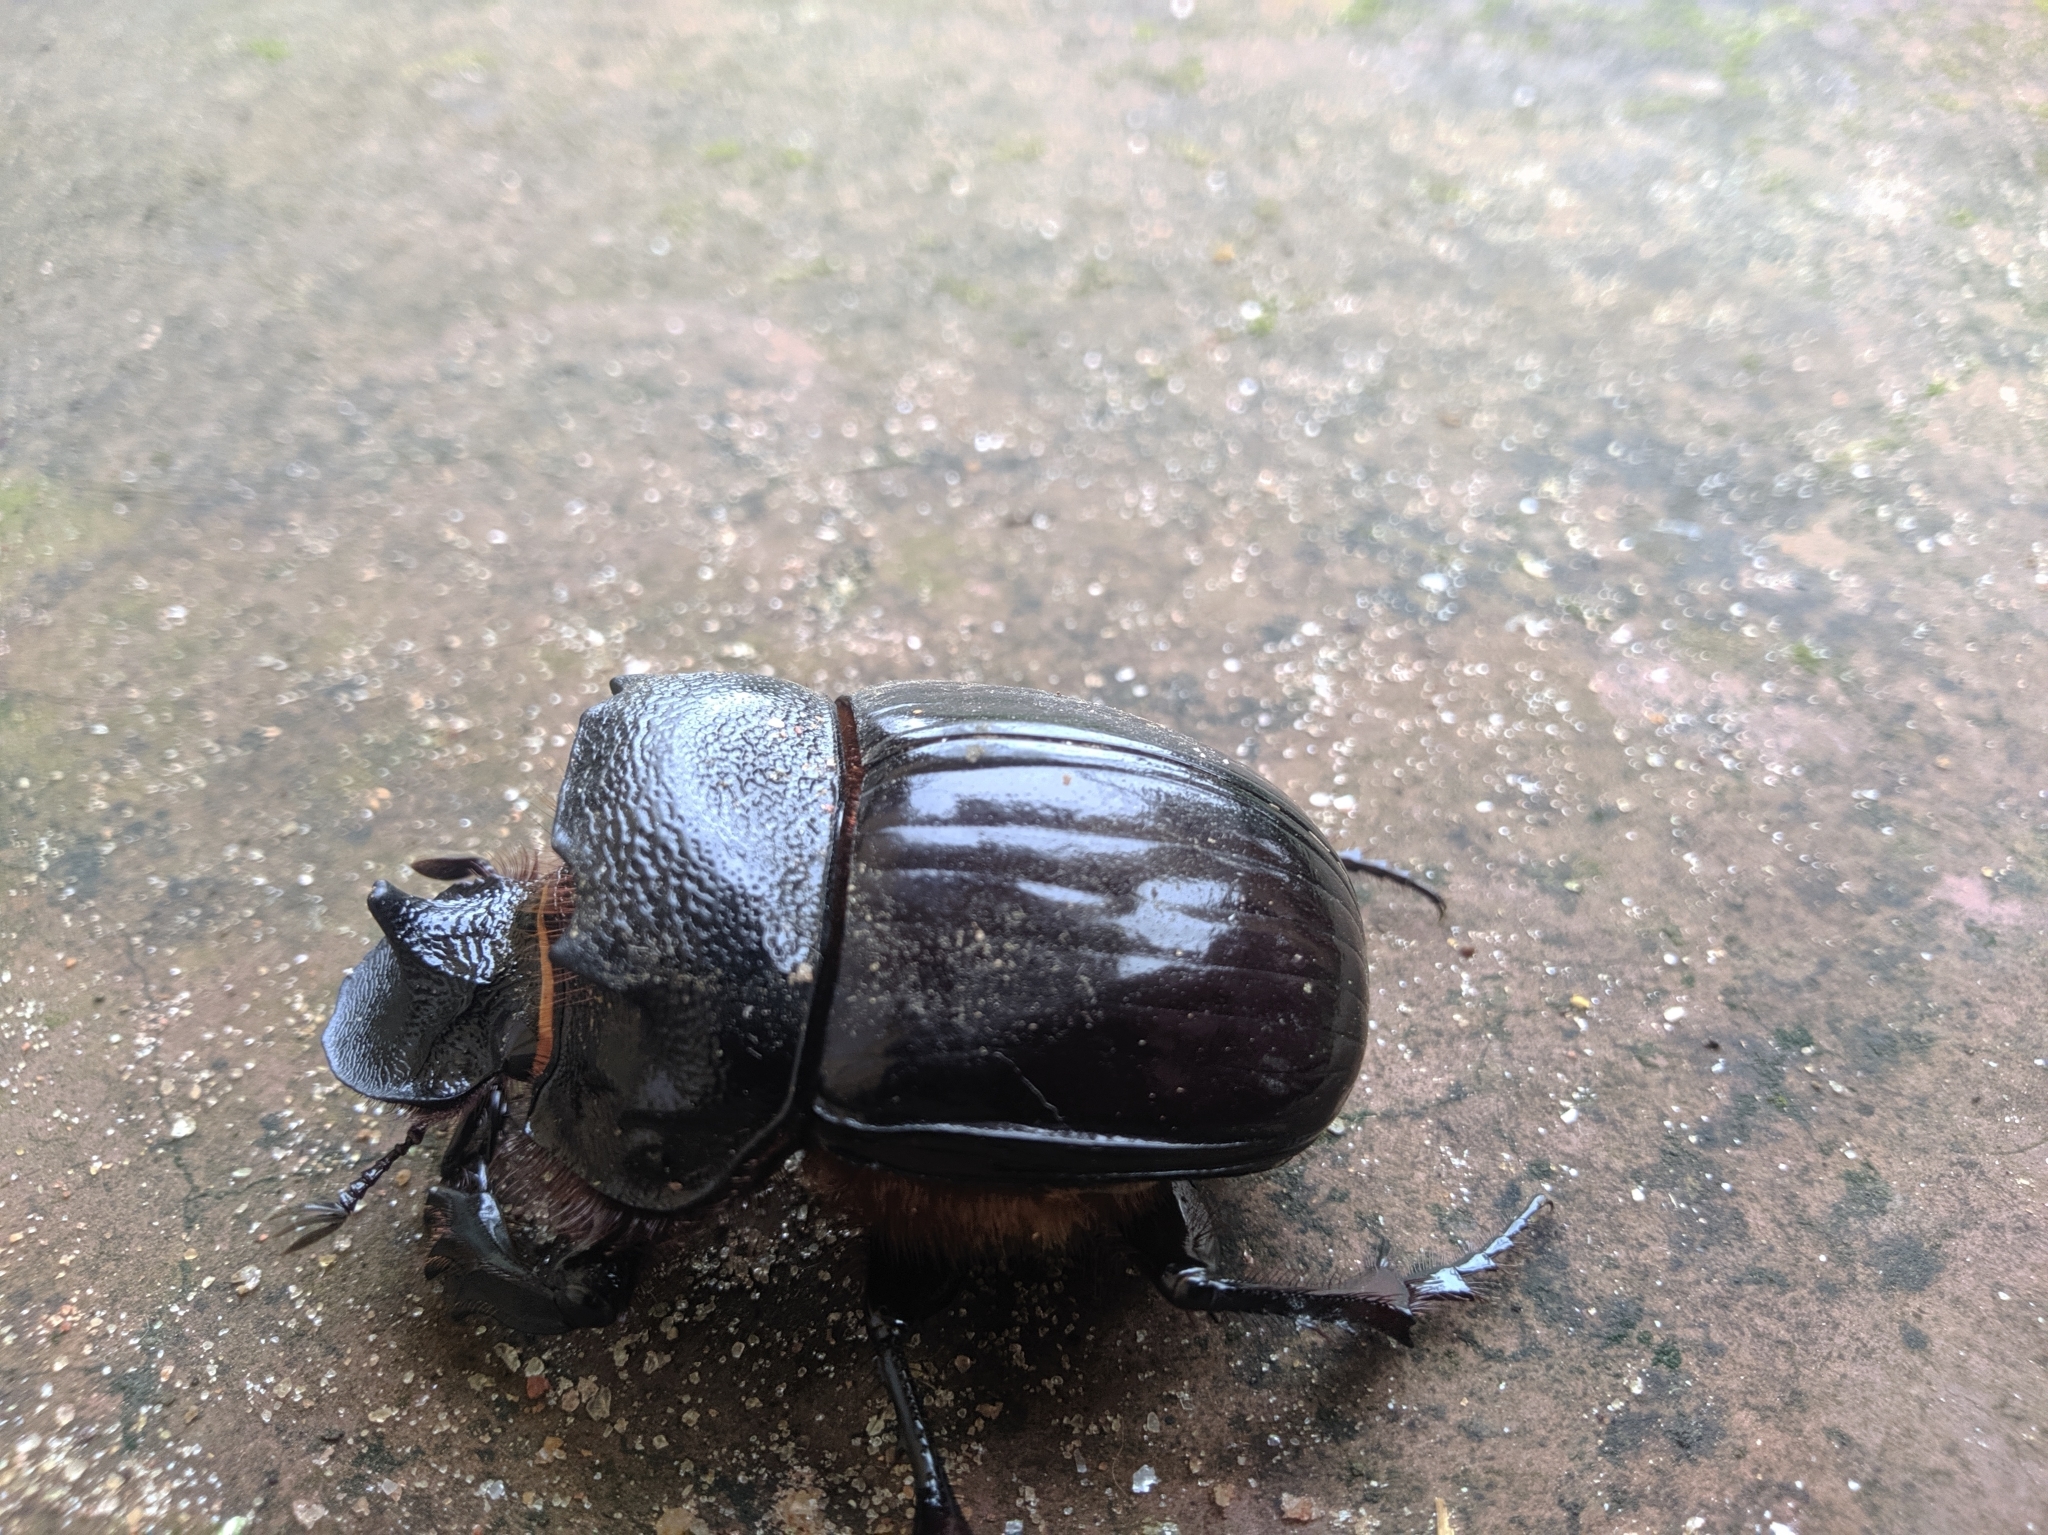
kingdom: Animalia
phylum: Arthropoda
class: Insecta
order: Coleoptera
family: Scarabaeidae
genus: Heliocopris
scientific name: Heliocopris ares
